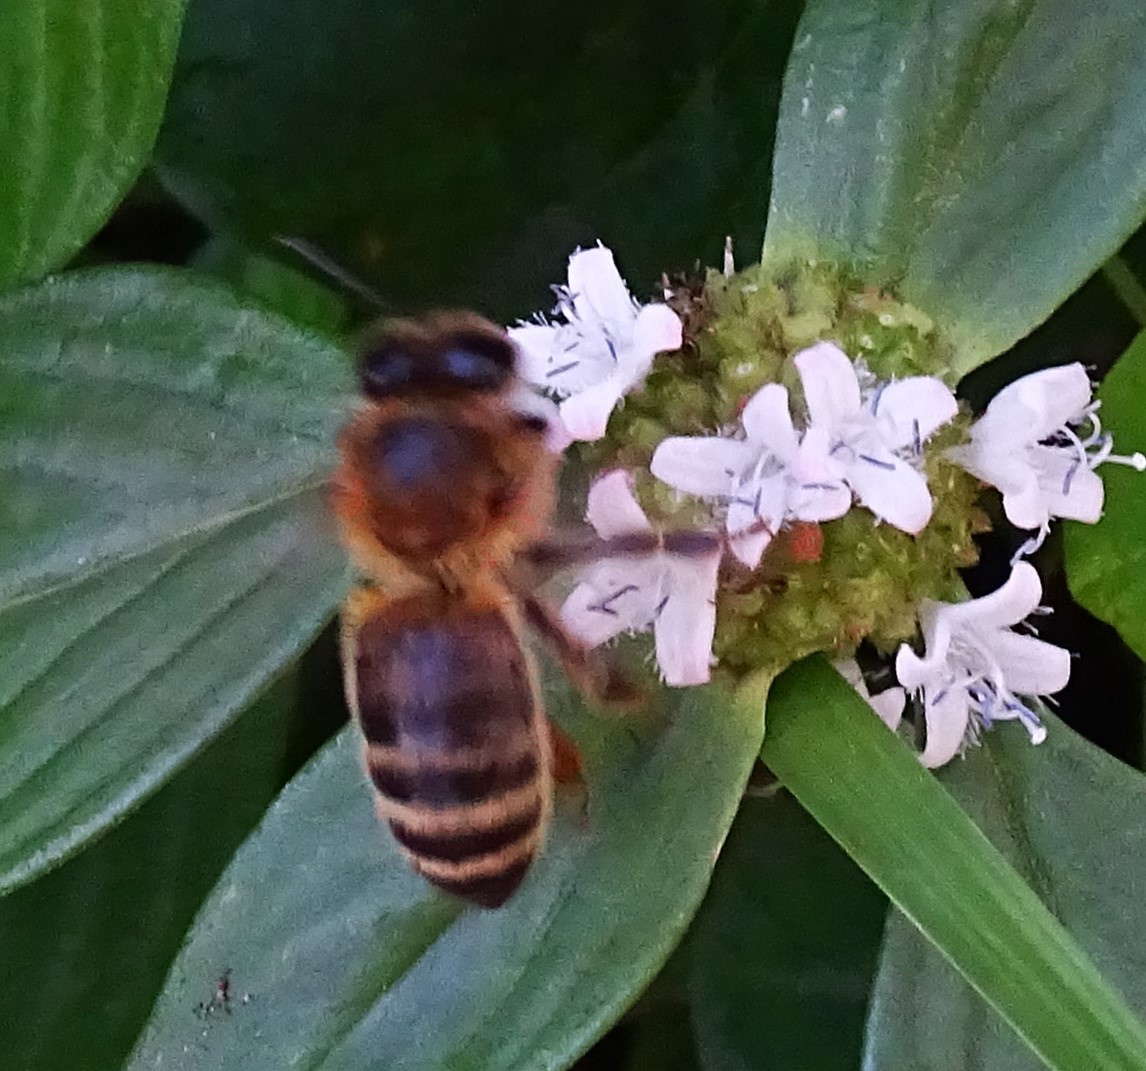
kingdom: Animalia
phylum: Arthropoda
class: Insecta
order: Hymenoptera
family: Apidae
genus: Apis
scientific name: Apis mellifera
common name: Honey bee
